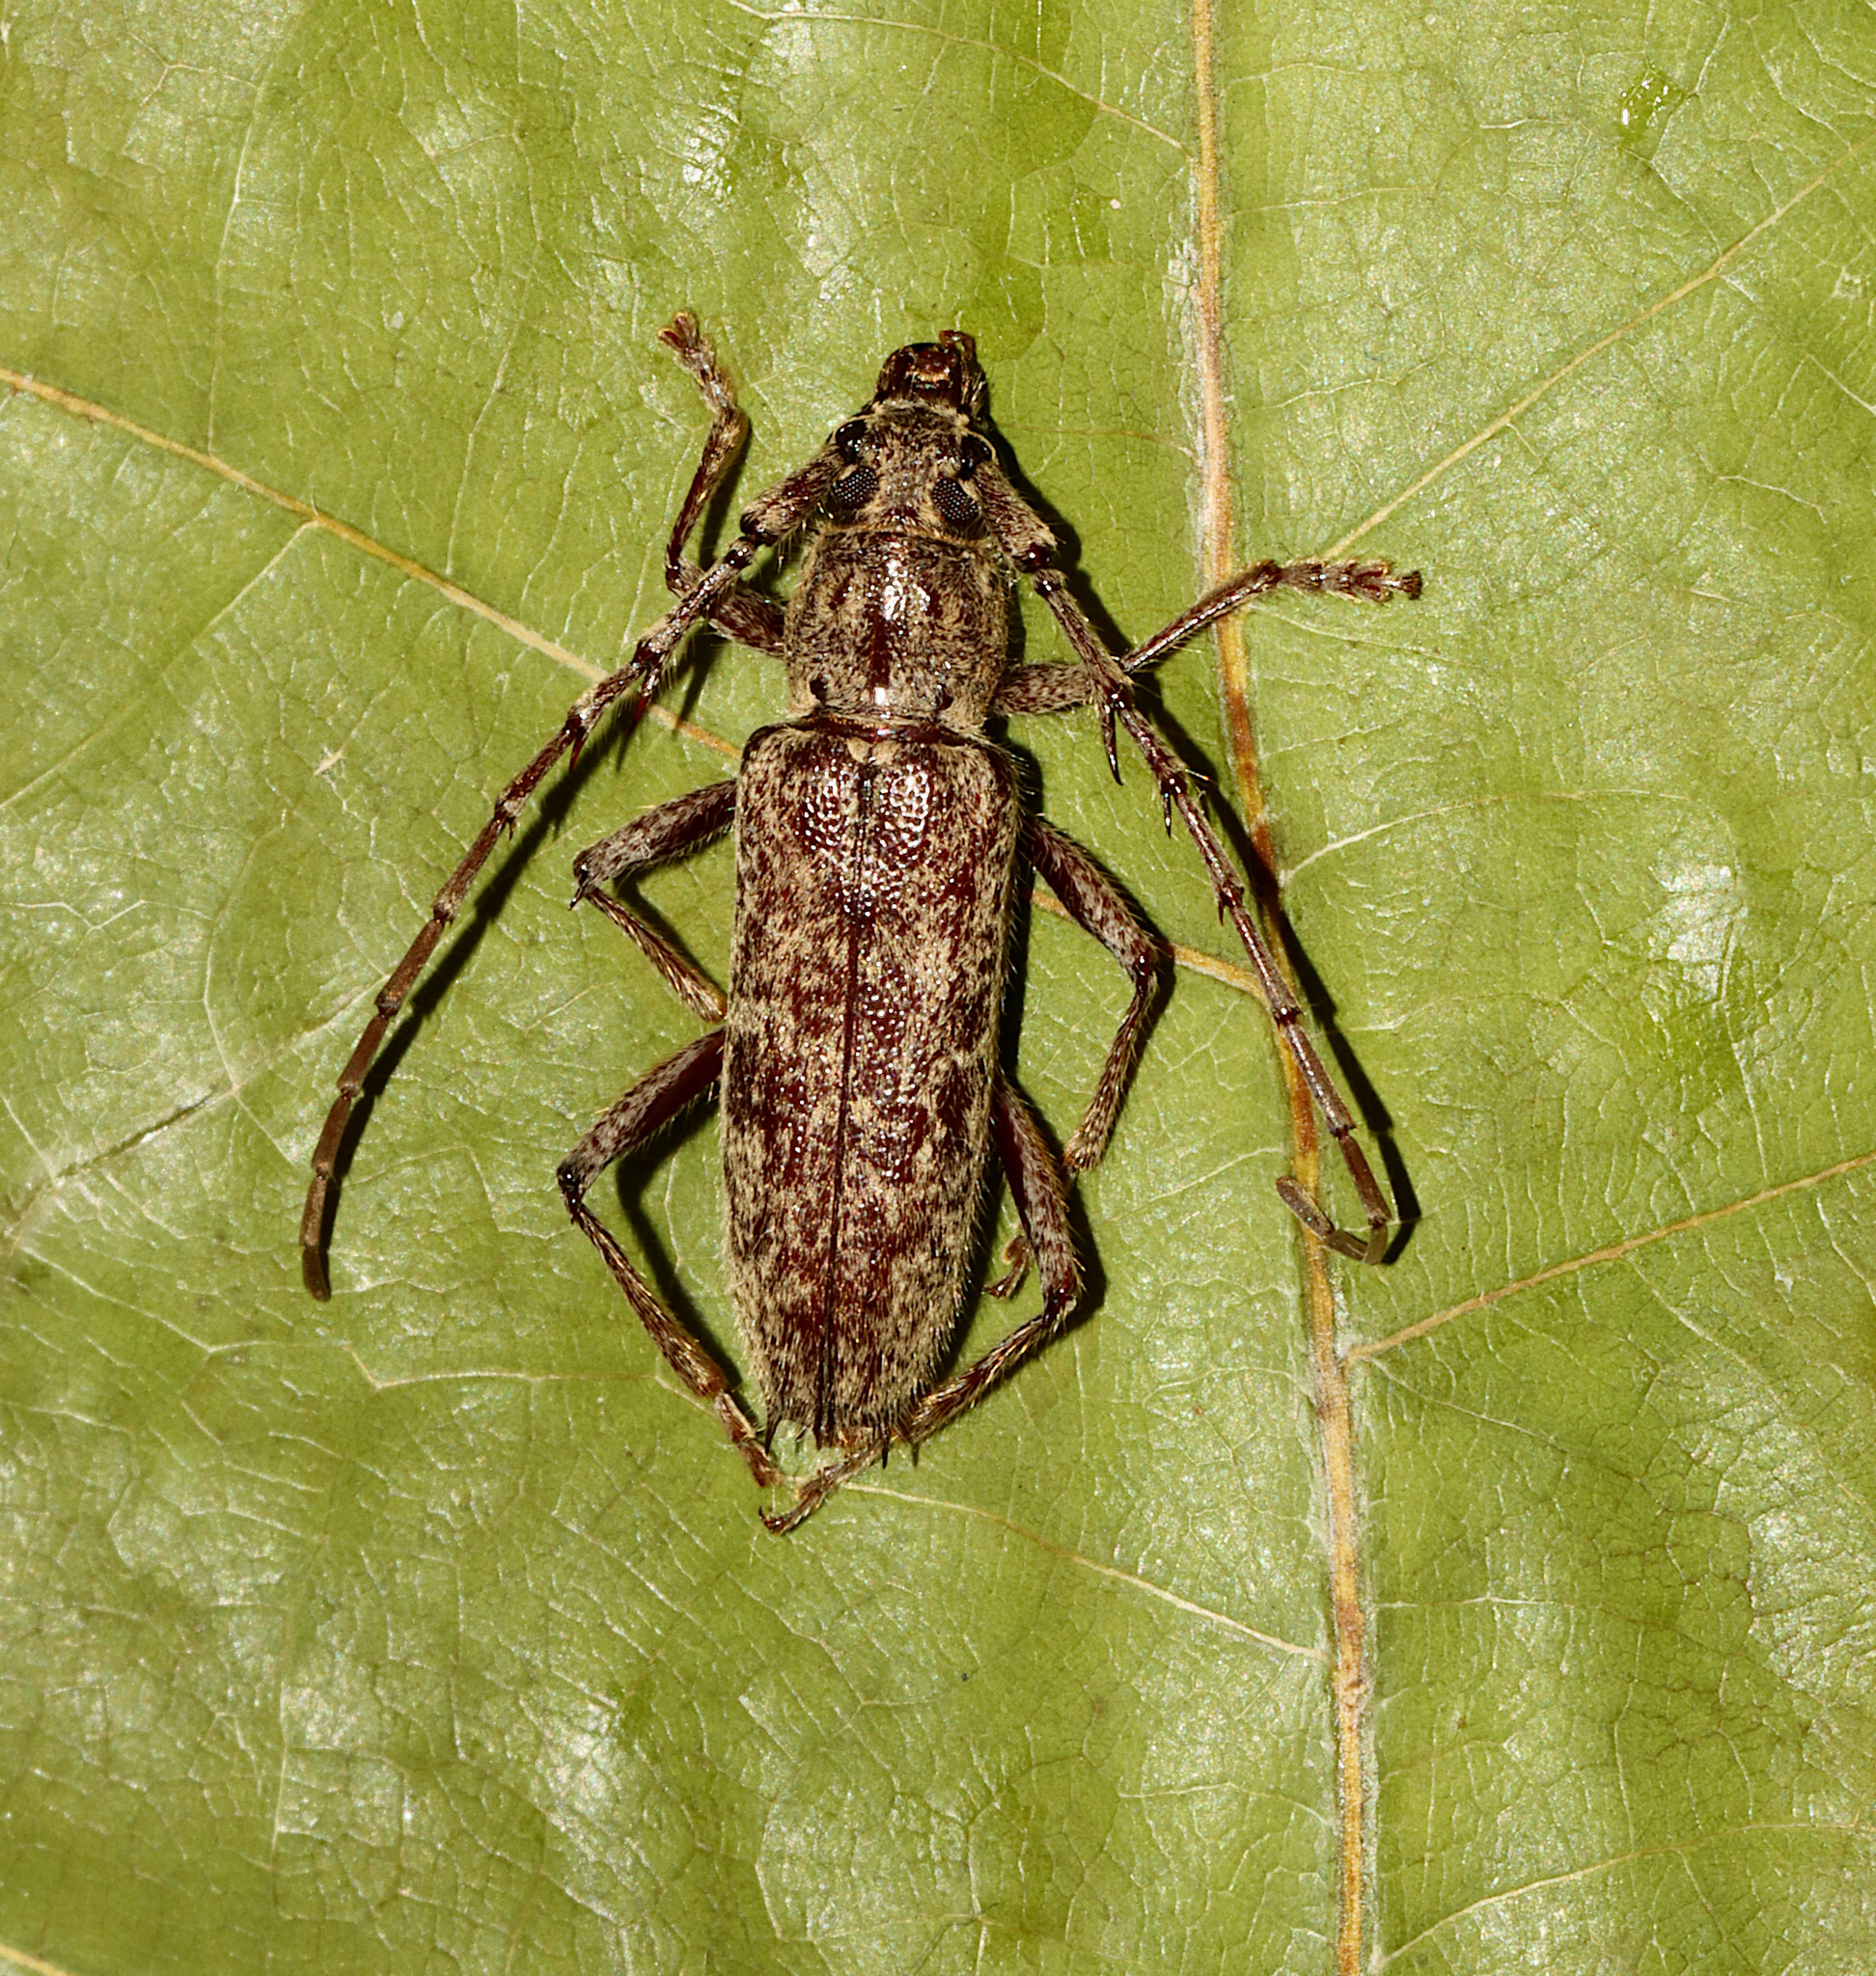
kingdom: Animalia
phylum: Arthropoda
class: Insecta
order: Coleoptera
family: Cerambycidae
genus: Elaphidion
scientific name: Elaphidion mucronatum
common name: Spined oak borer
